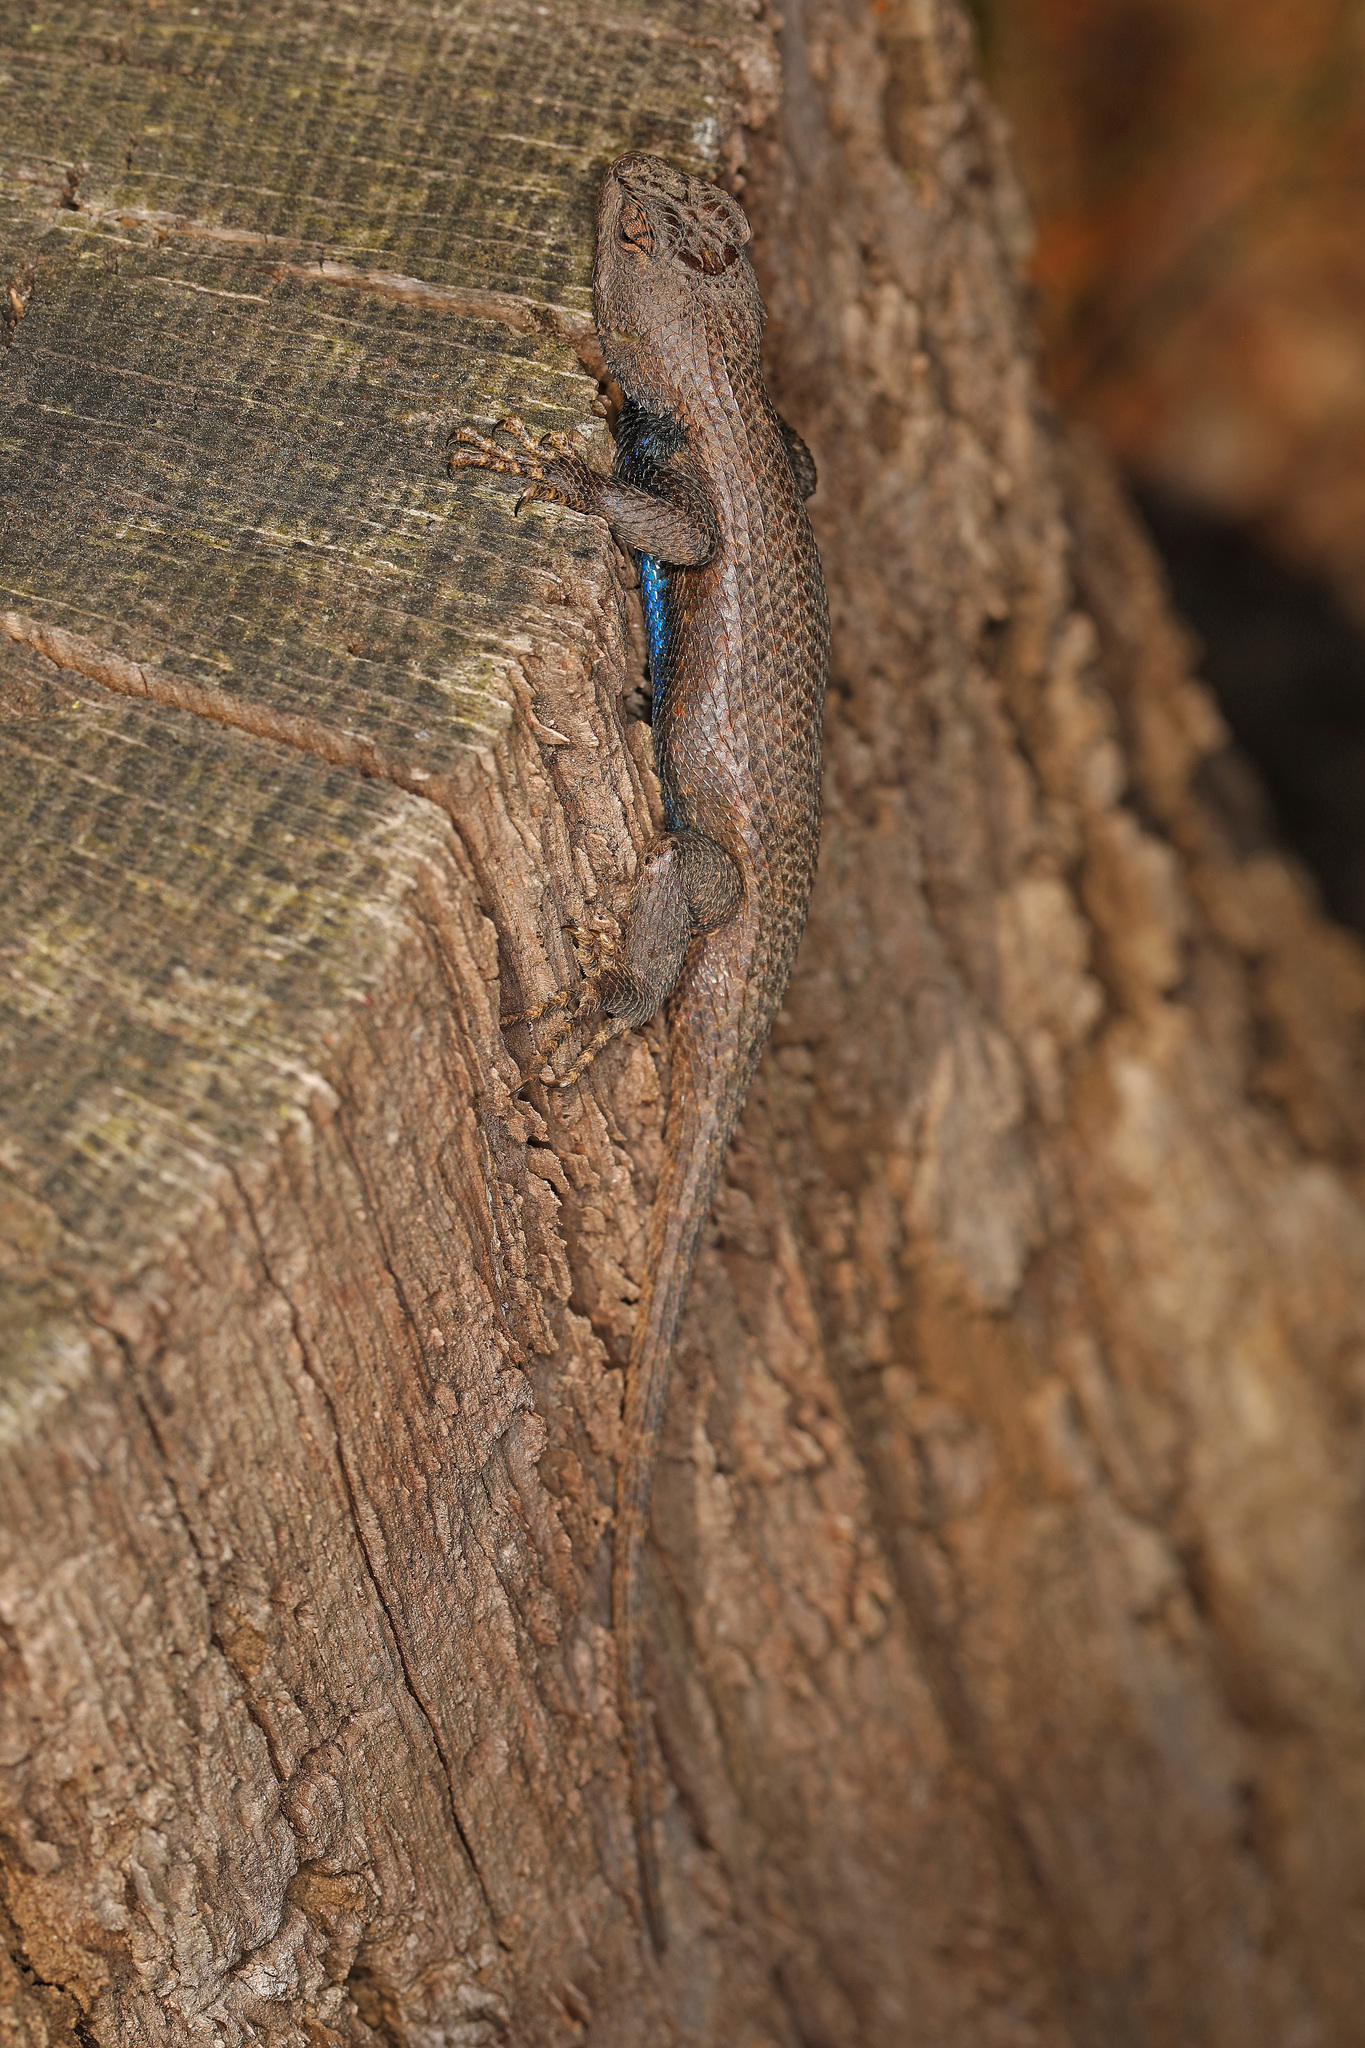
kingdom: Animalia
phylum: Chordata
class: Squamata
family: Phrynosomatidae
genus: Sceloporus
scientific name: Sceloporus undulatus
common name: Eastern fence lizard
